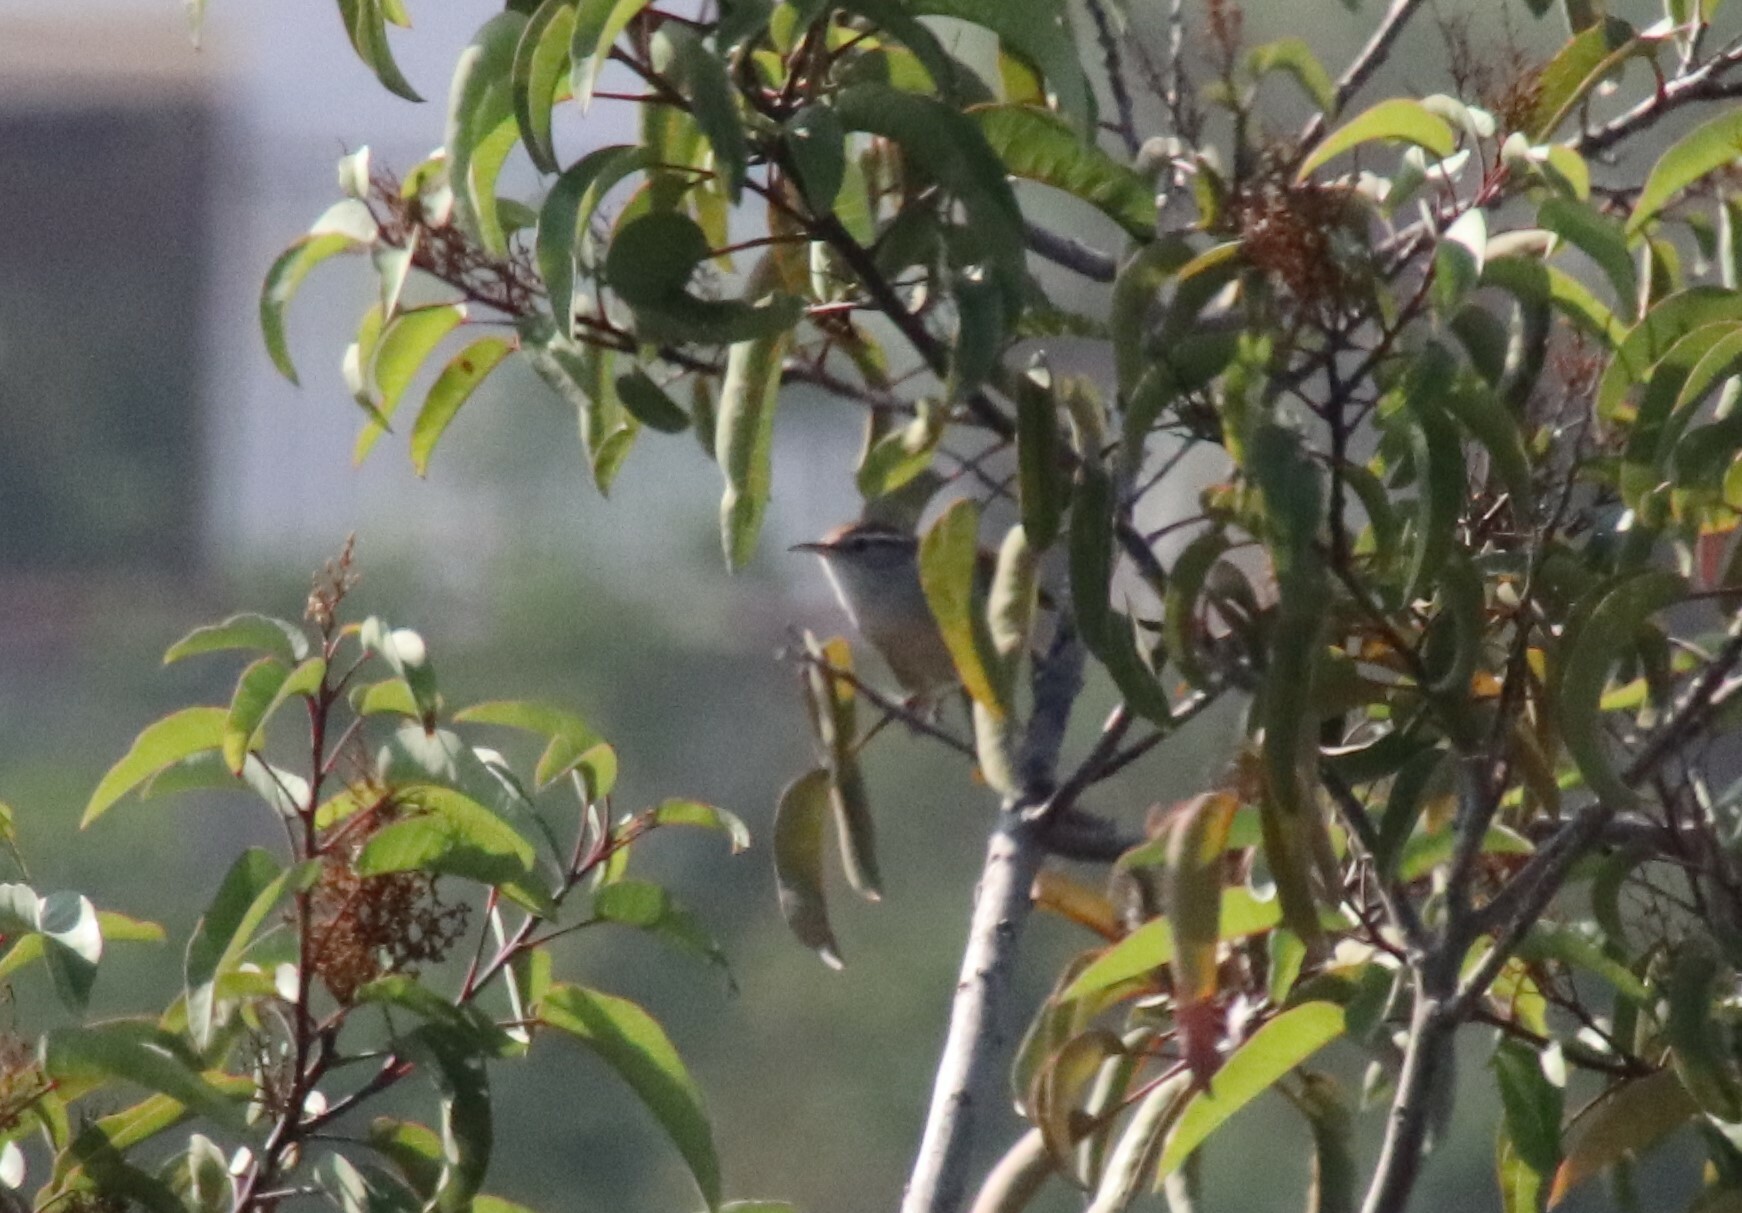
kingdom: Animalia
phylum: Chordata
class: Aves
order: Passeriformes
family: Troglodytidae
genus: Thryomanes
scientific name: Thryomanes bewickii
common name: Bewick's wren
